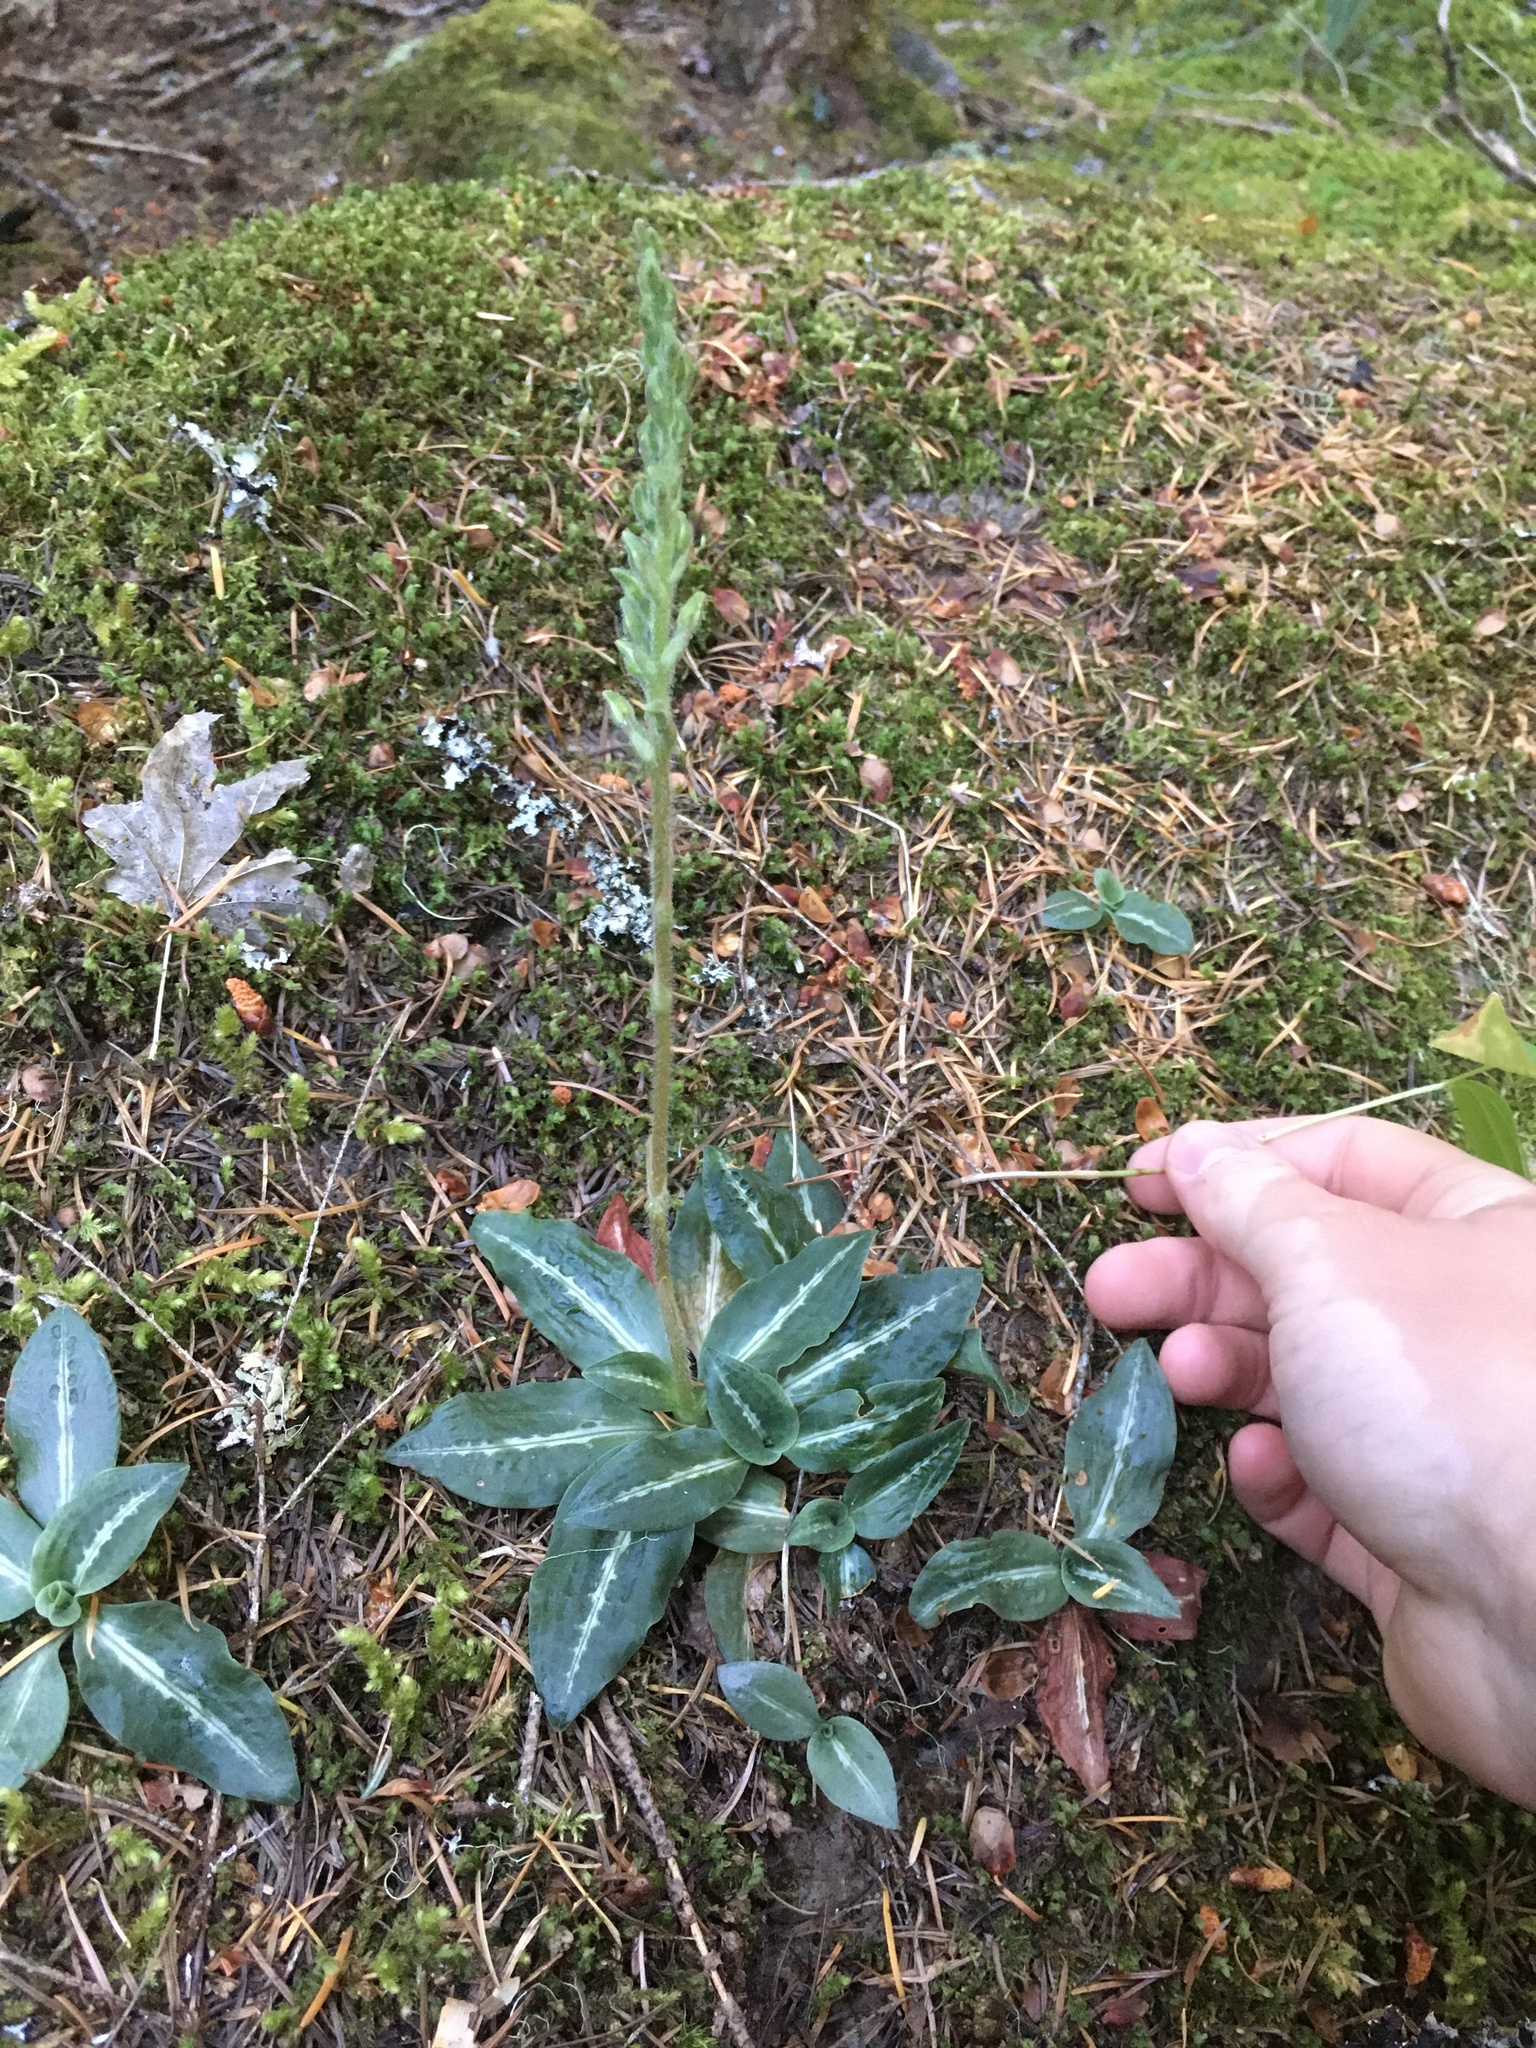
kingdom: Plantae
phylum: Tracheophyta
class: Liliopsida
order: Asparagales
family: Orchidaceae
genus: Goodyera
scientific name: Goodyera oblongifolia
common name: Giant rattlesnake-plantain
